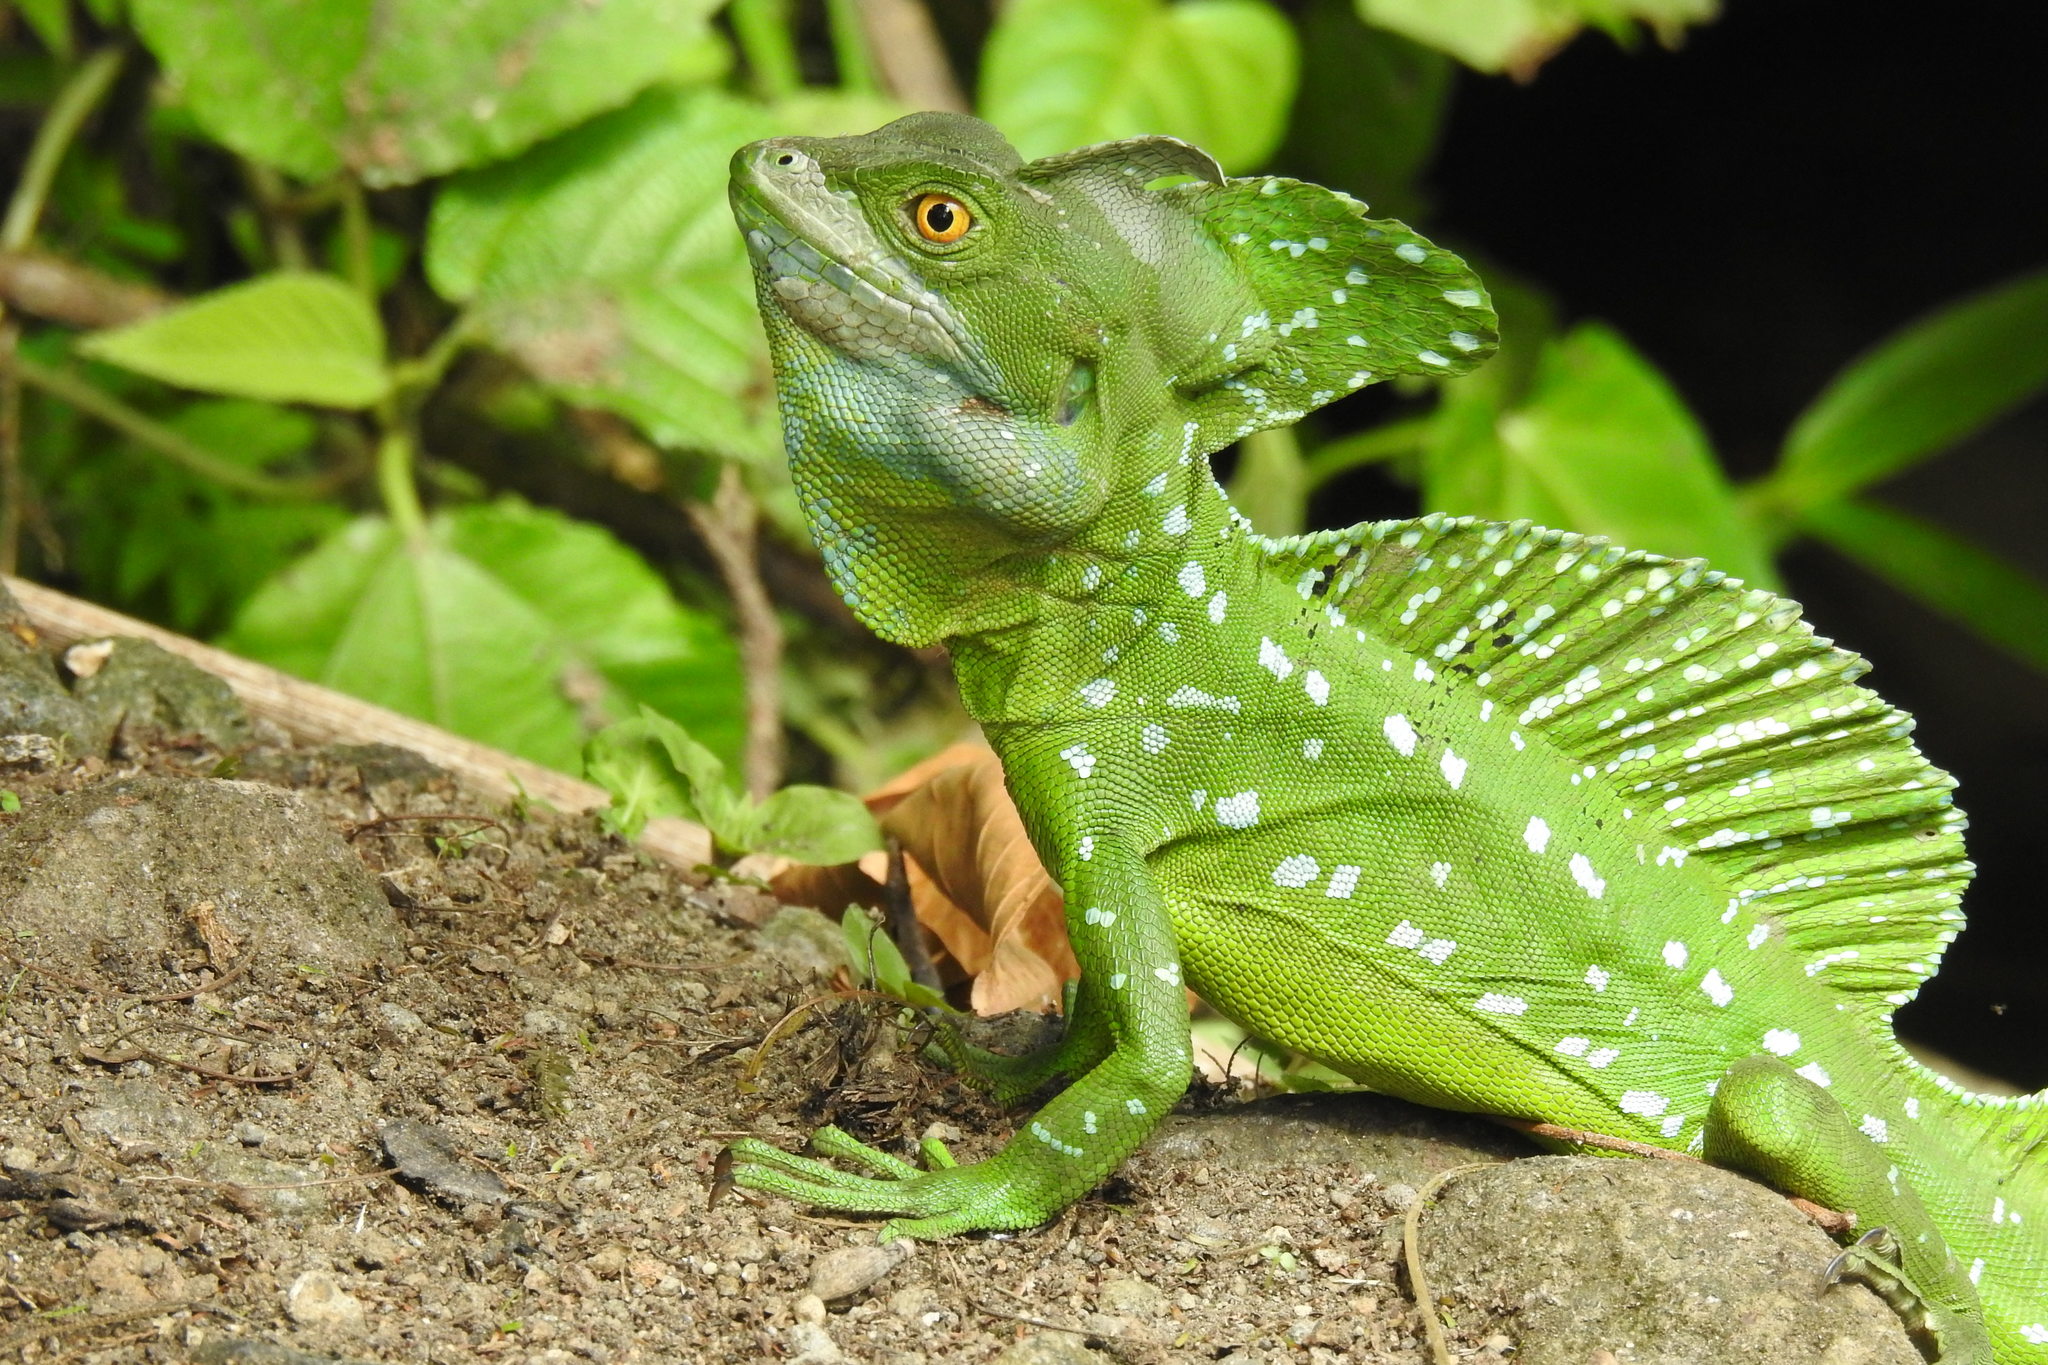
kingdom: Animalia
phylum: Chordata
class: Squamata
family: Corytophanidae
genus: Basiliscus
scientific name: Basiliscus plumifrons
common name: Green basilisk
